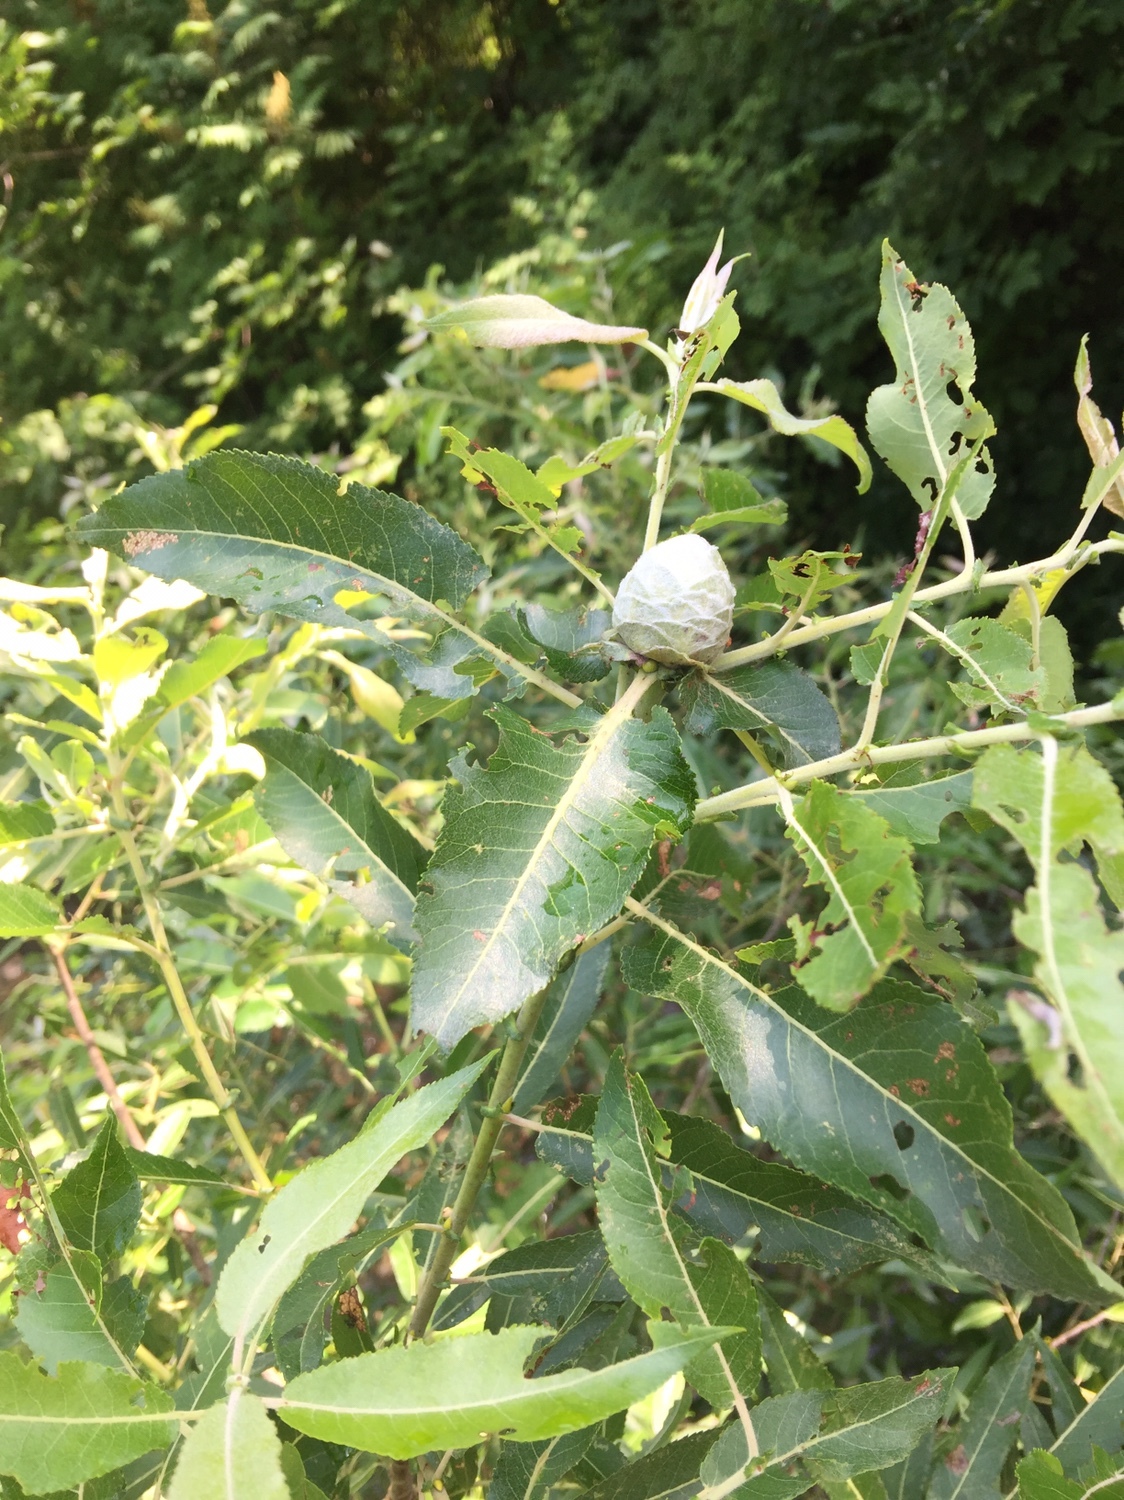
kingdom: Animalia
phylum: Arthropoda
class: Insecta
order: Diptera
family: Cecidomyiidae
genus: Rabdophaga
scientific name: Rabdophaga strobiloides
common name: Willow pinecone gall midge
